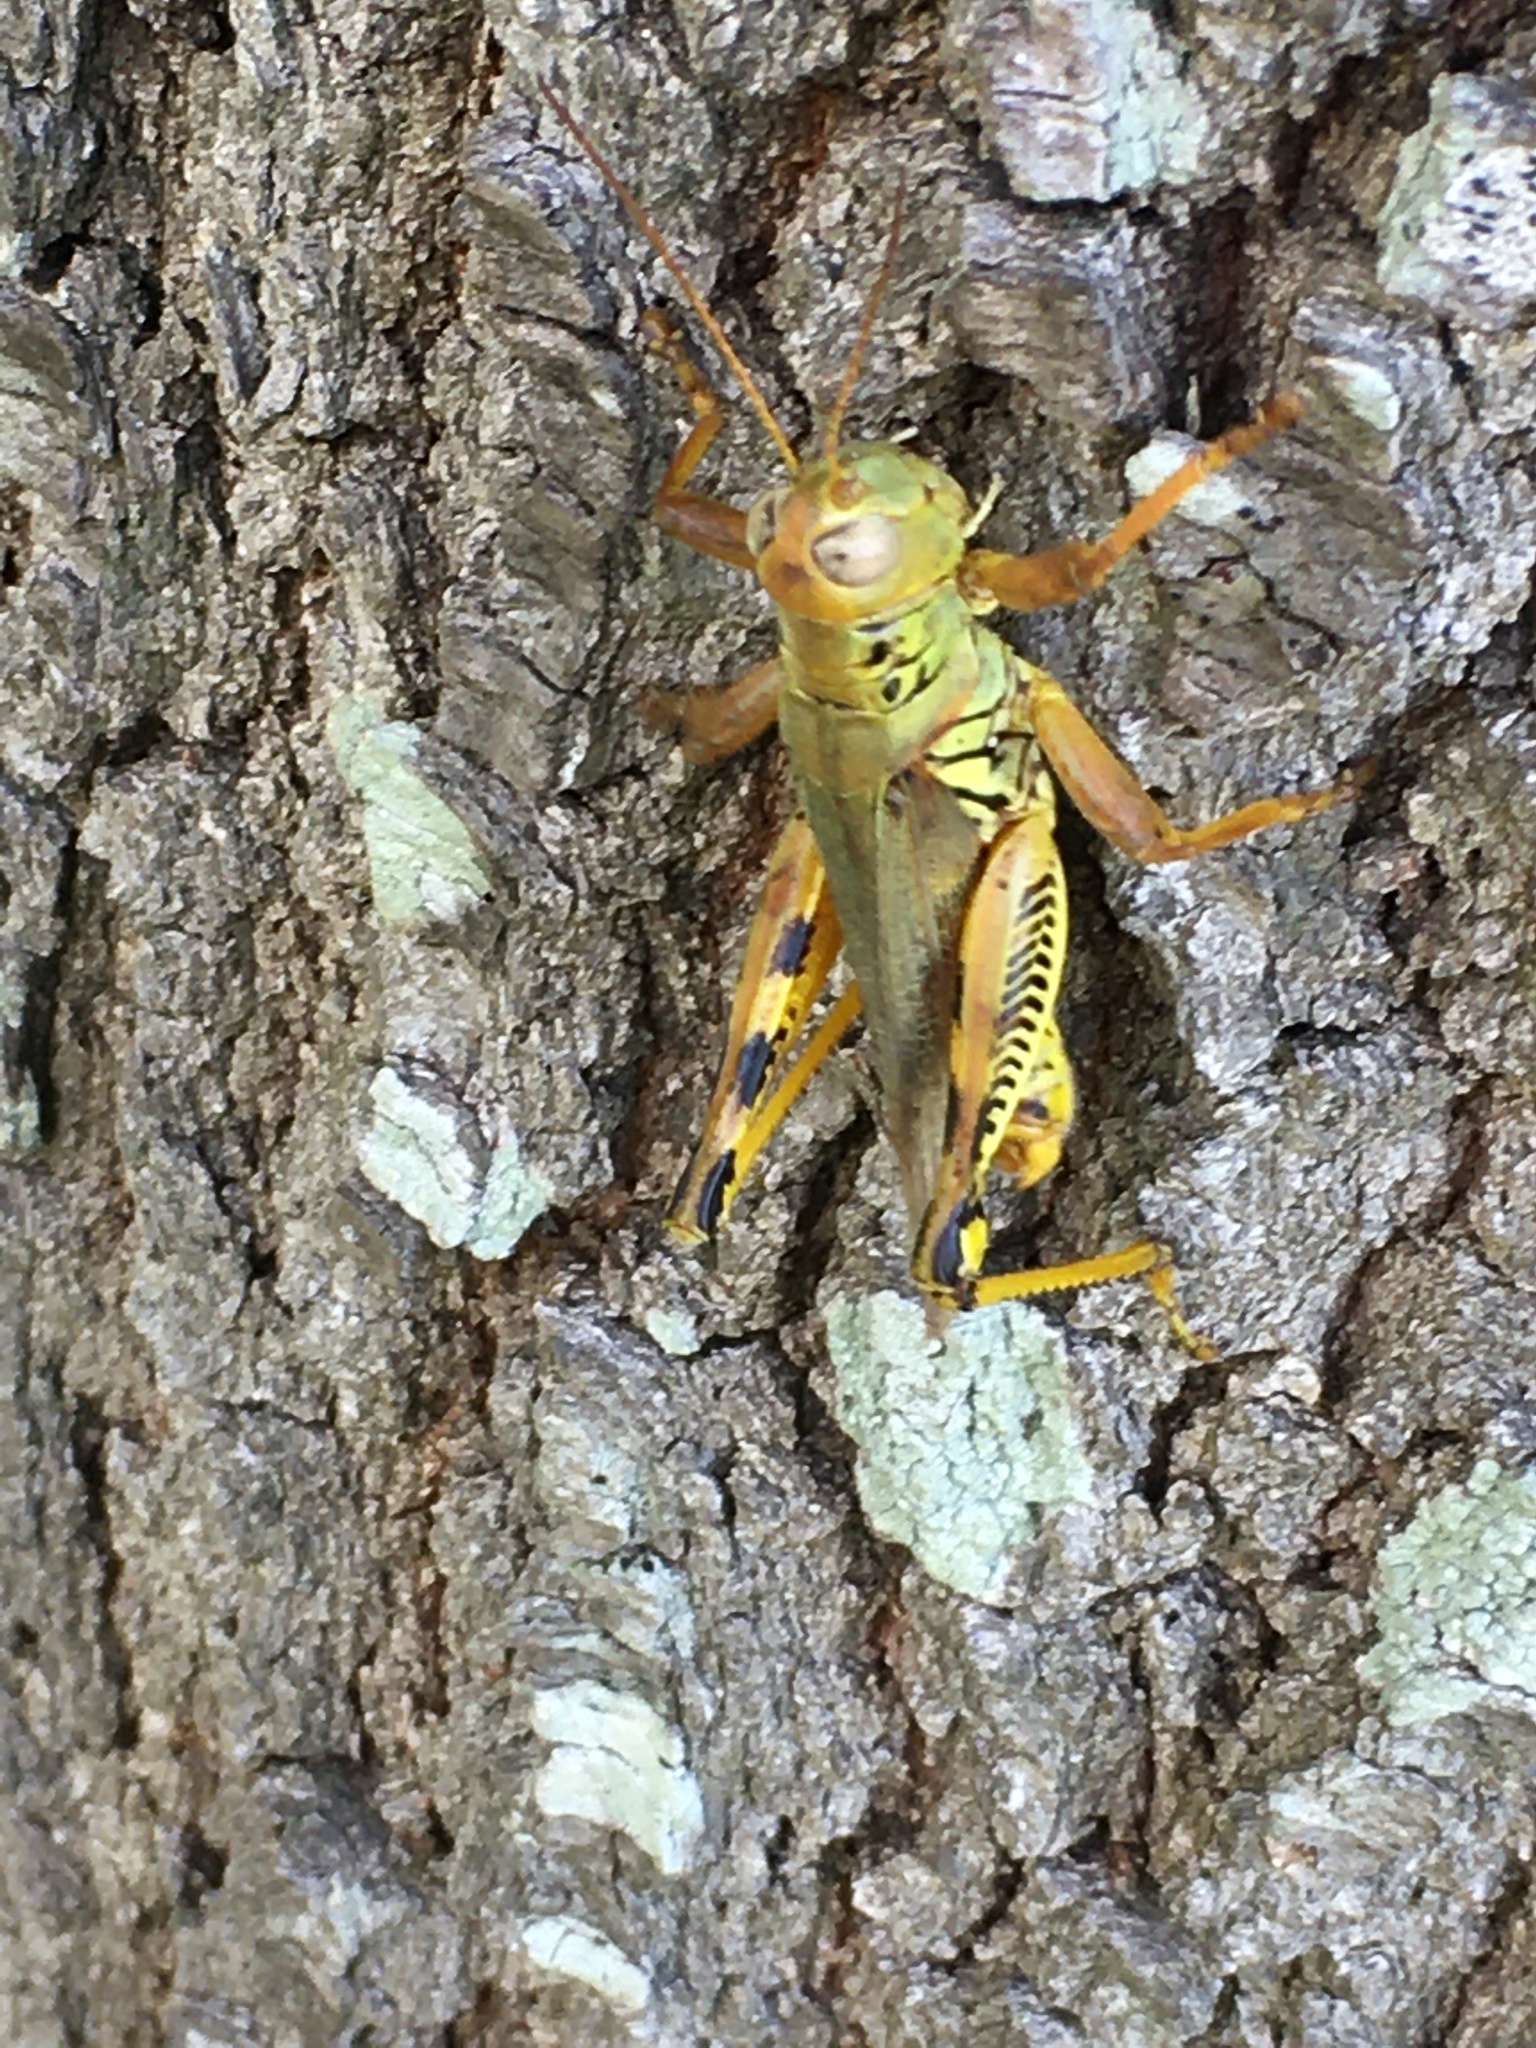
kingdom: Animalia
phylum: Arthropoda
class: Insecta
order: Orthoptera
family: Acrididae
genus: Melanoplus
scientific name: Melanoplus differentialis
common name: Differential grasshopper
